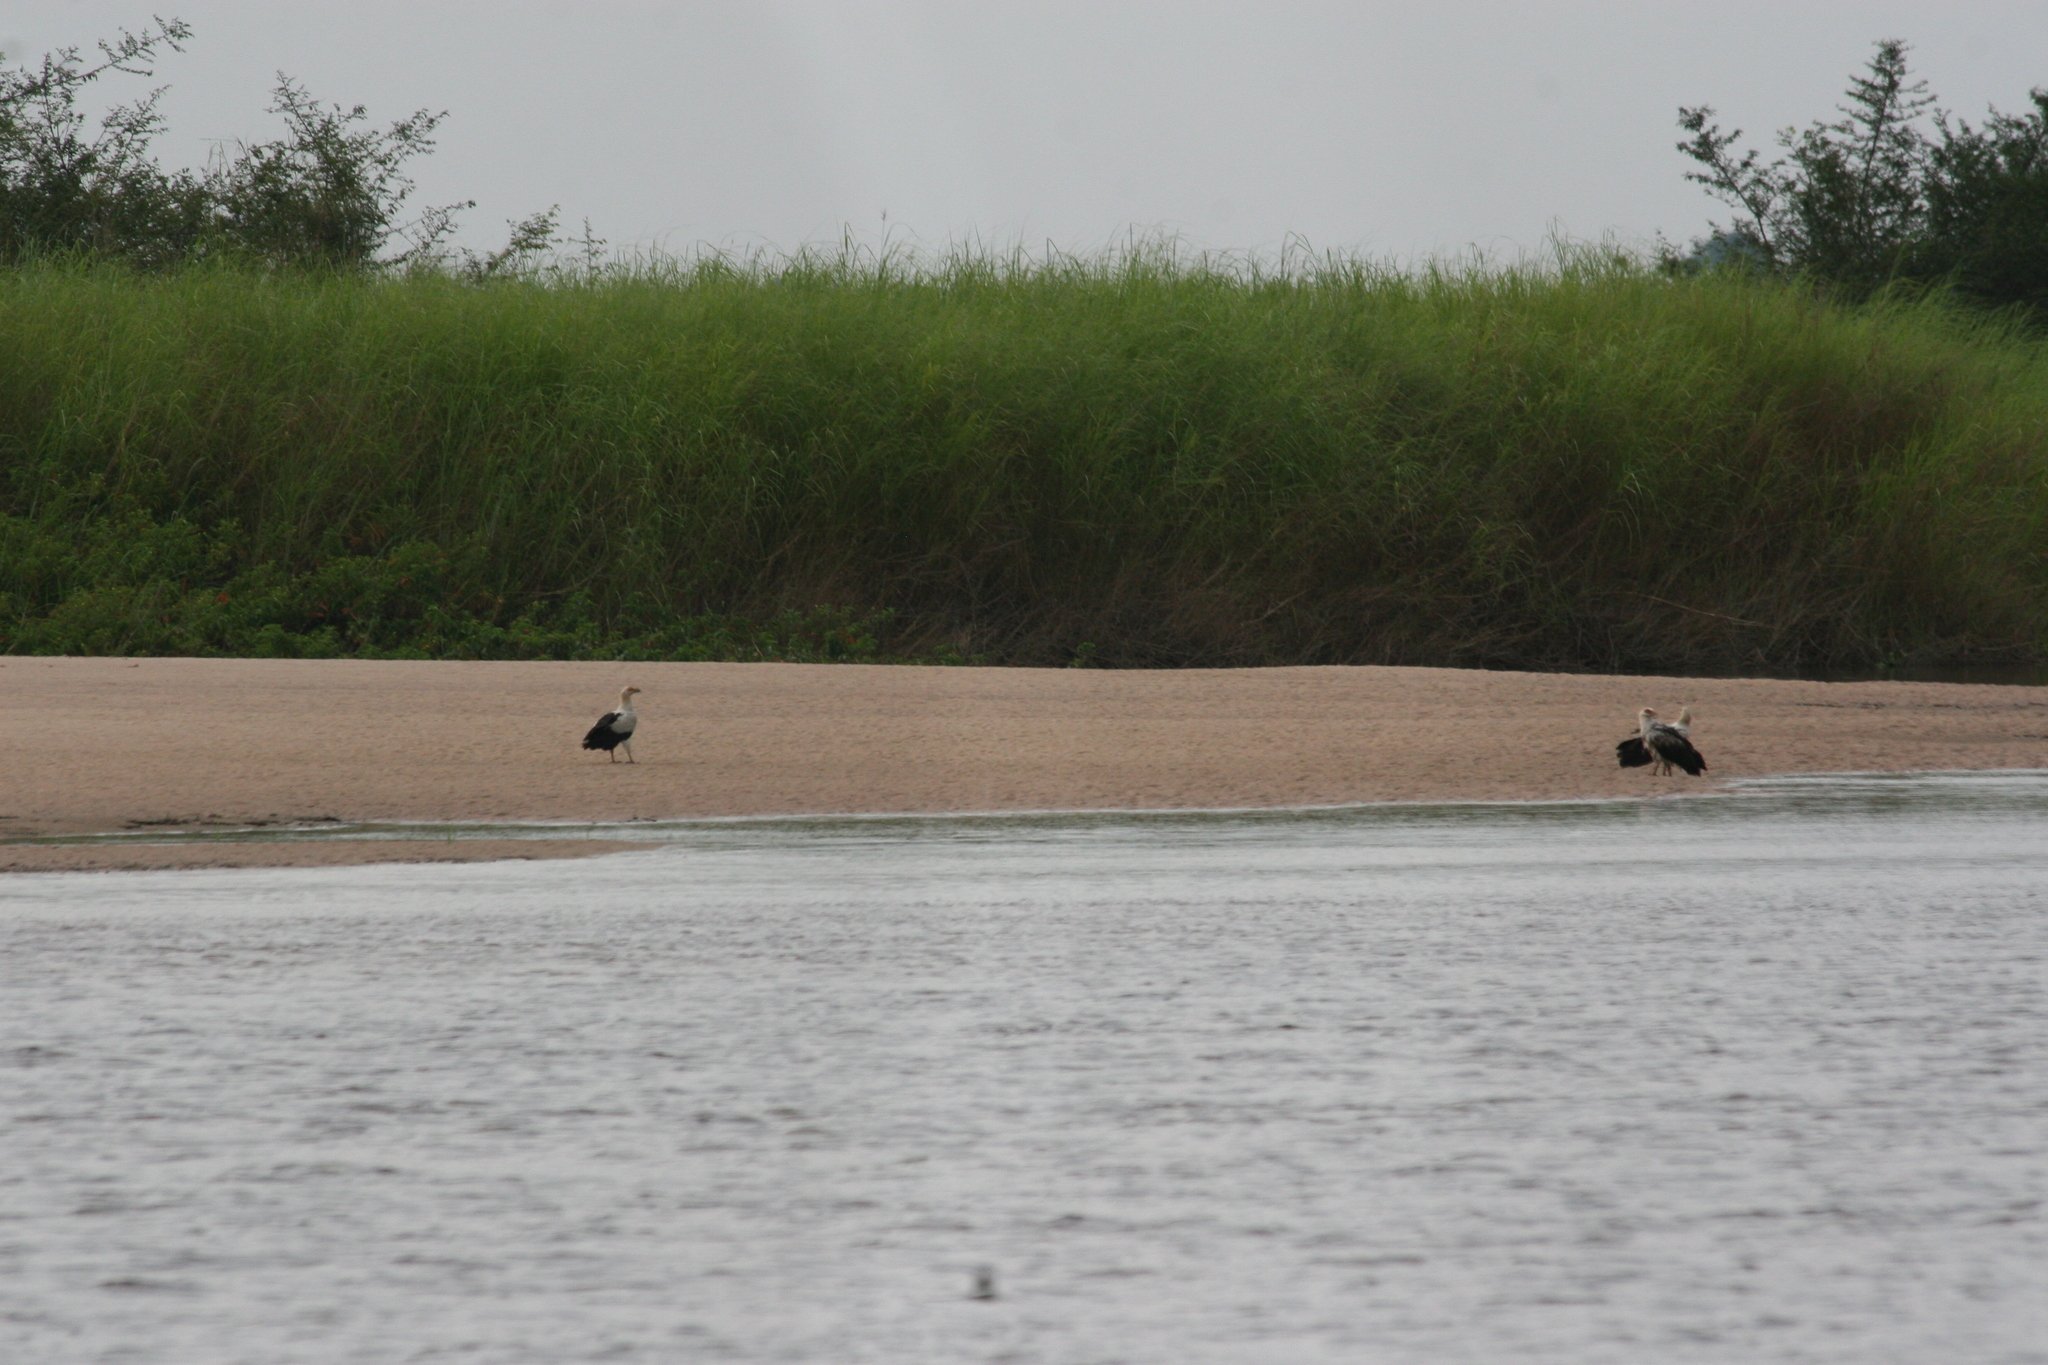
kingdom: Animalia
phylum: Chordata
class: Aves
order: Accipitriformes
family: Accipitridae
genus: Gypohierax
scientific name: Gypohierax angolensis
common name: Palm-nut vulture
